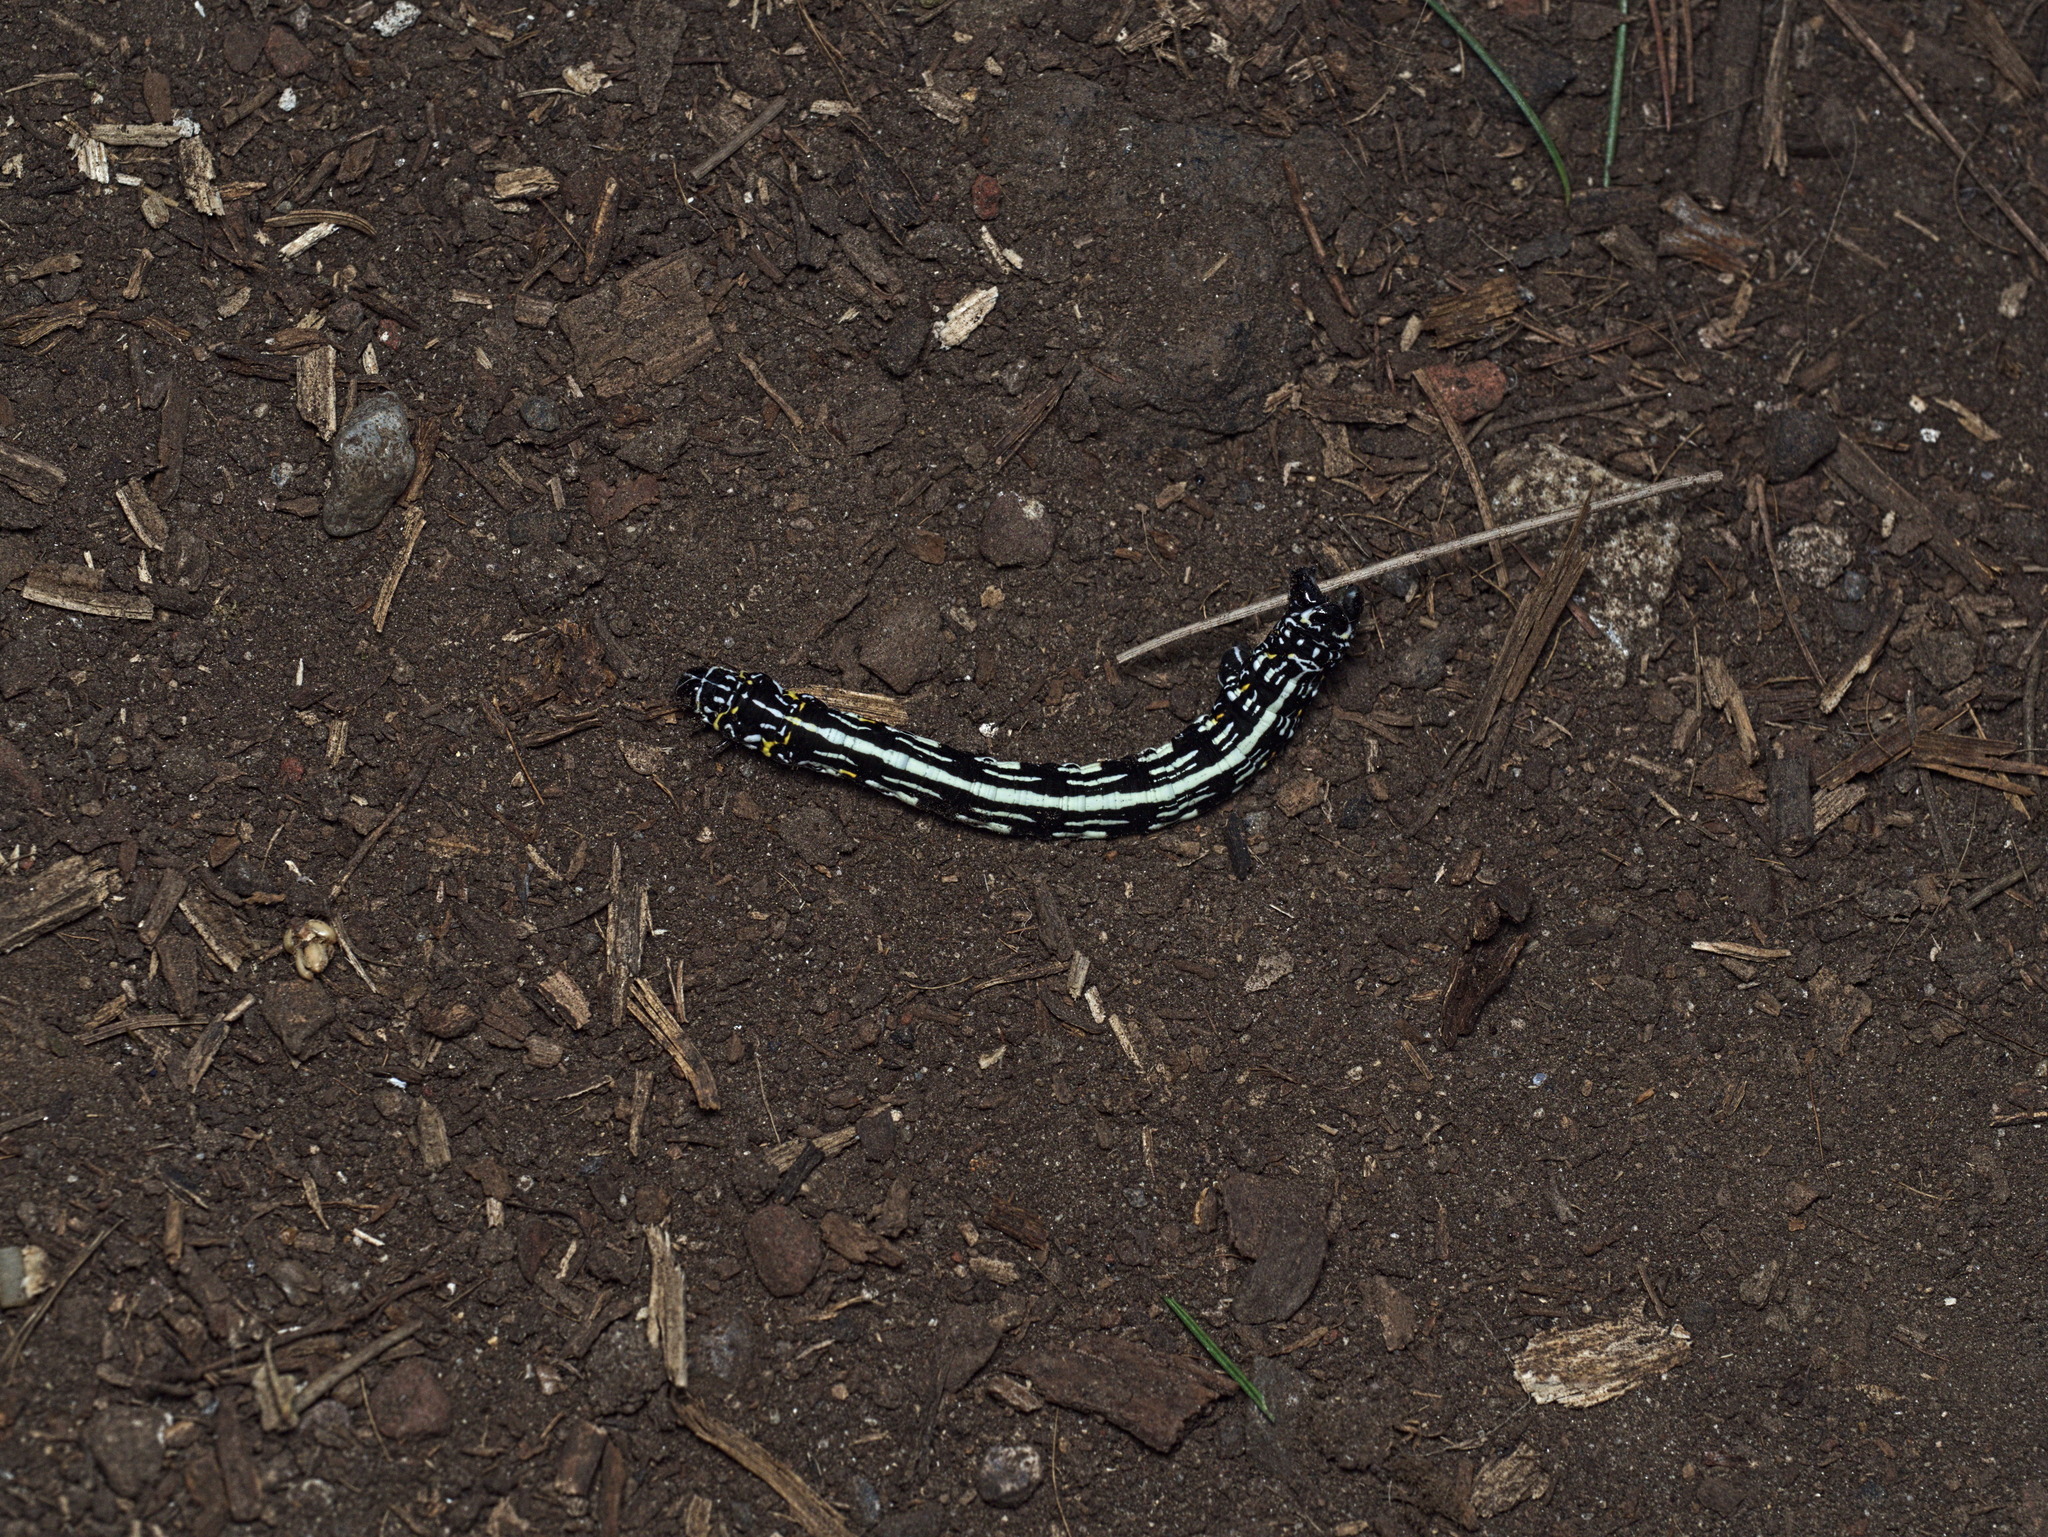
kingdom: Animalia
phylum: Arthropoda
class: Insecta
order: Lepidoptera
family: Geometridae
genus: Acronyctodes
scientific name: Acronyctodes mexicanaria
